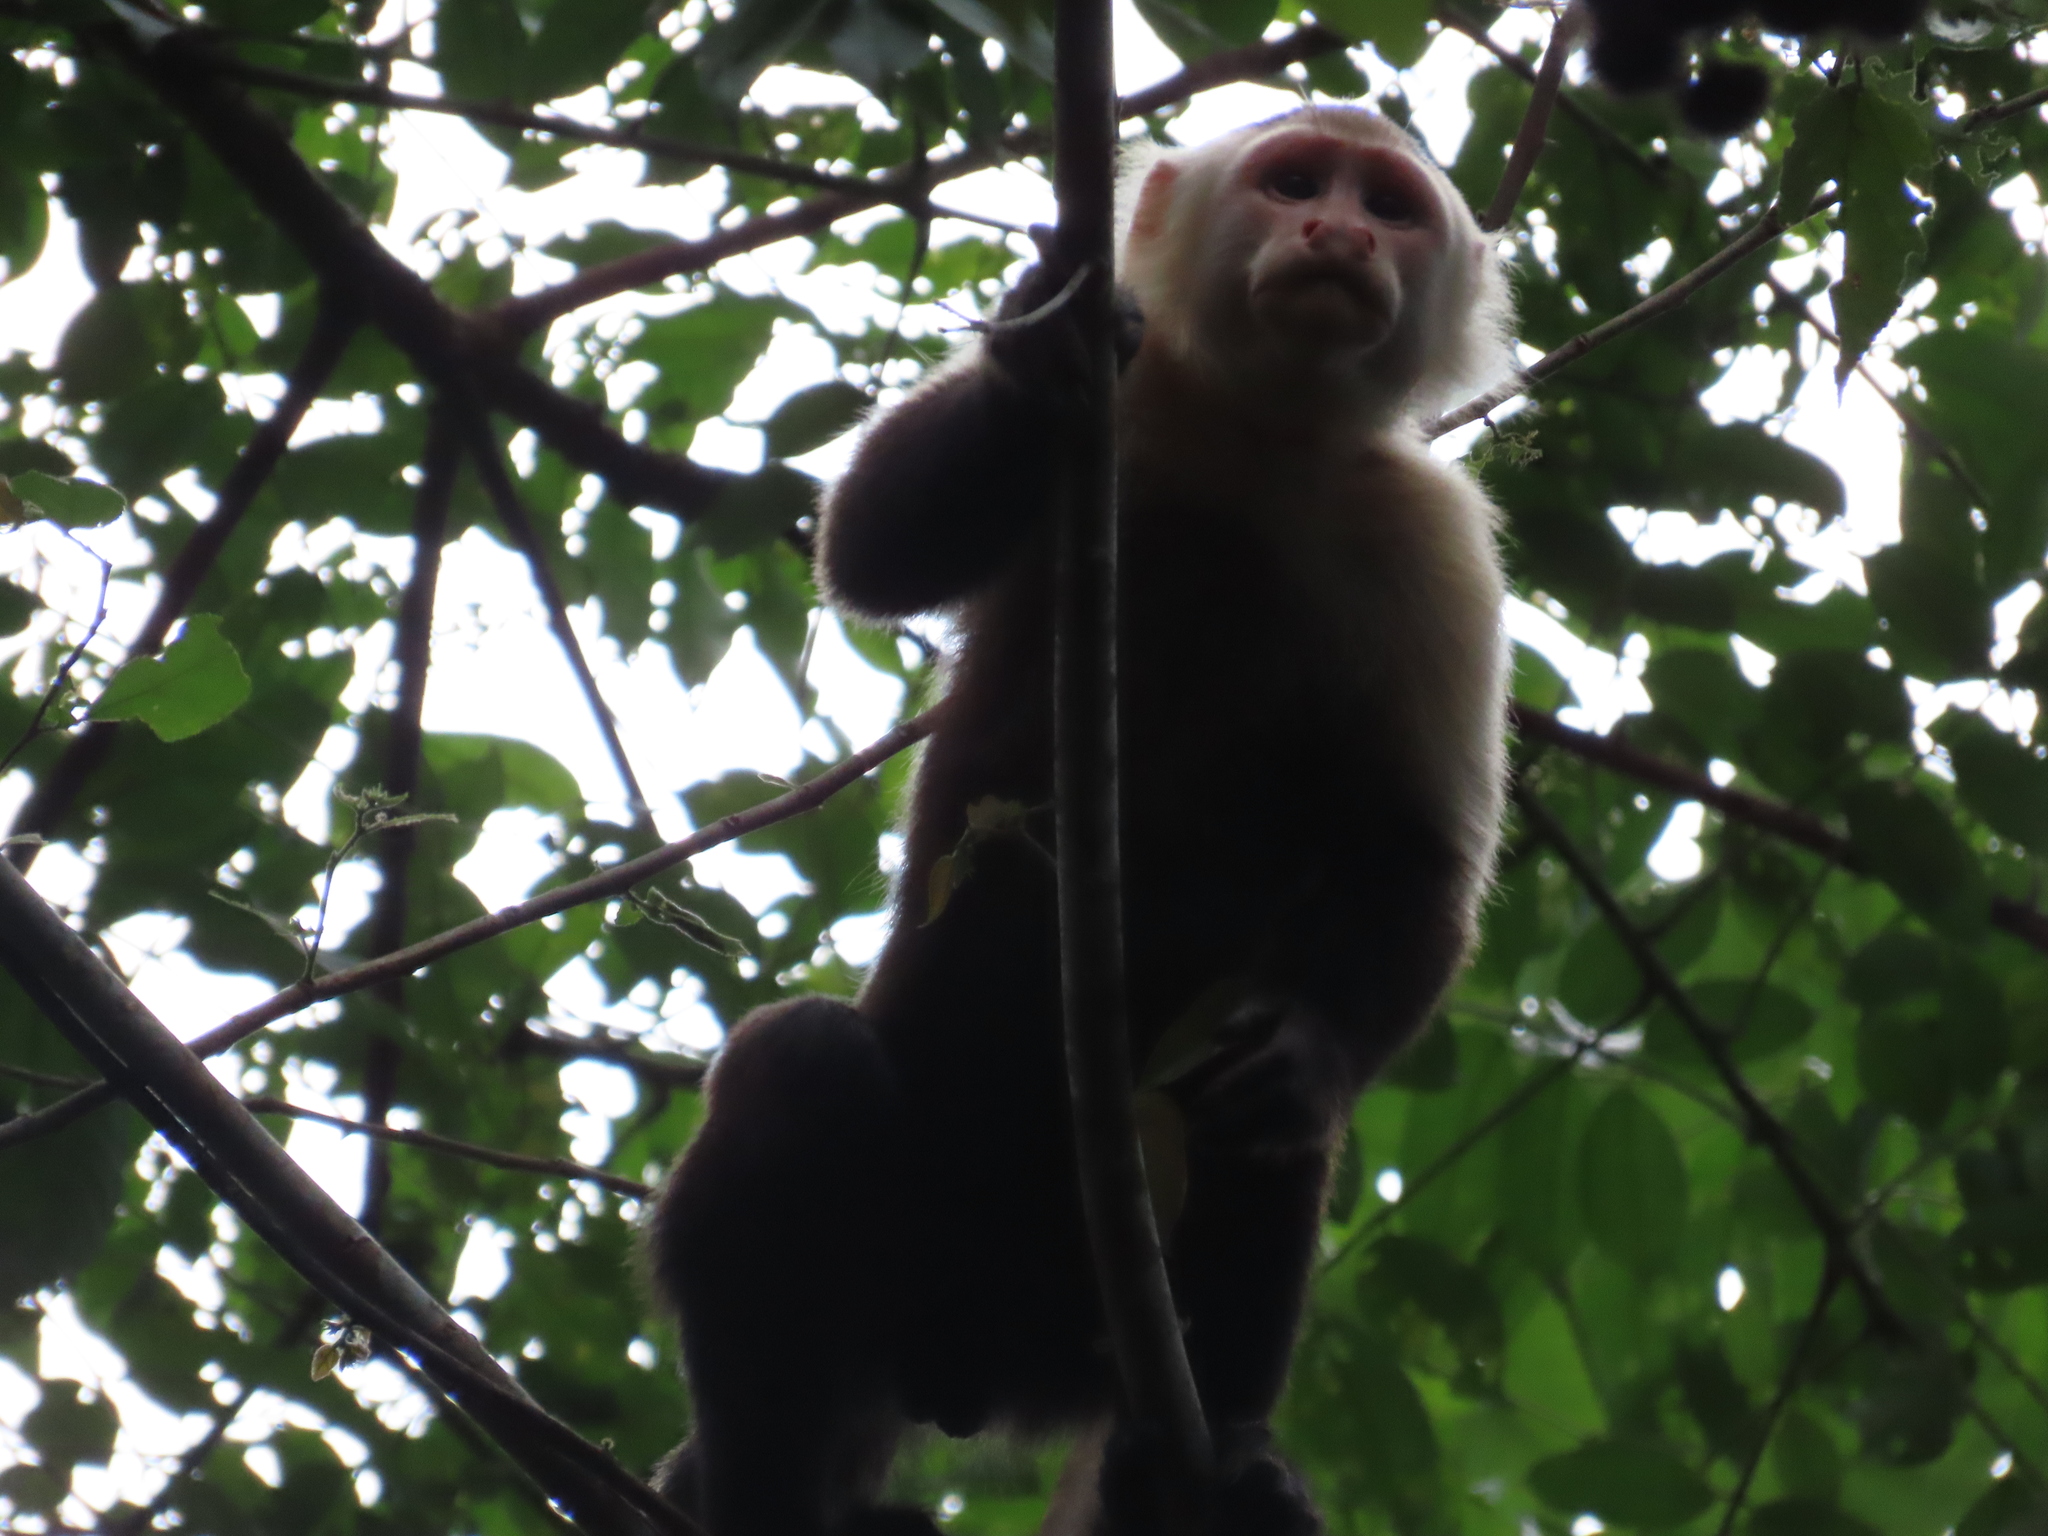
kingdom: Animalia
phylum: Chordata
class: Mammalia
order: Primates
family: Cebidae
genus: Cebus
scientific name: Cebus capucinus
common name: White-headed capuchin
